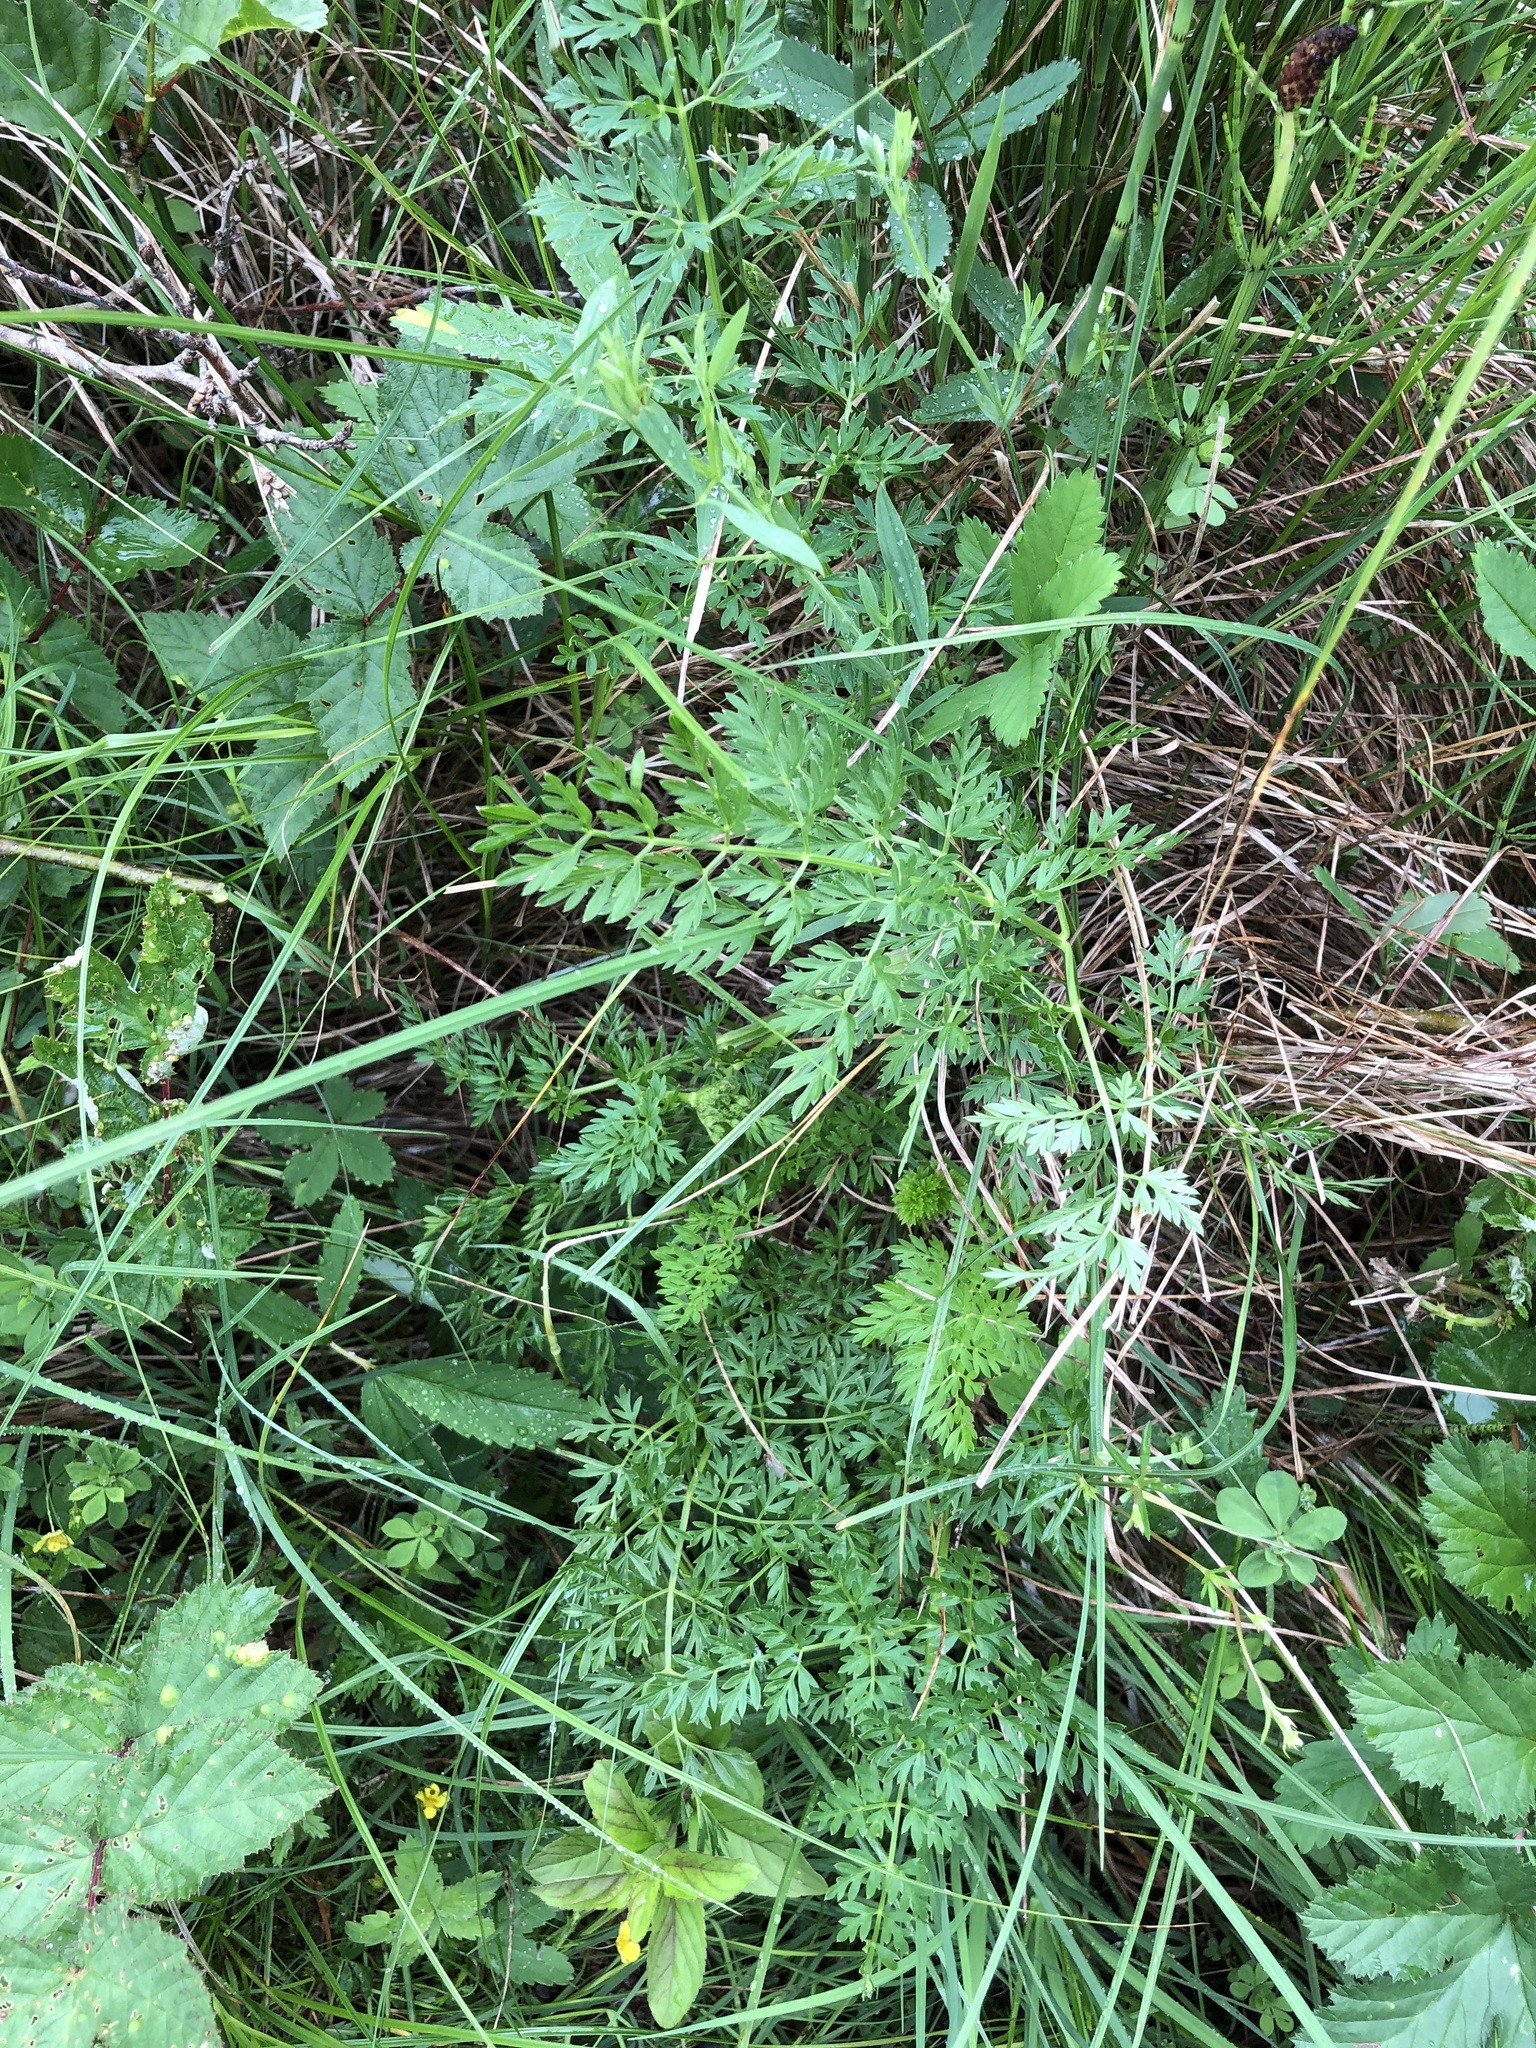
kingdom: Plantae
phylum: Tracheophyta
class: Magnoliopsida
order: Apiales
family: Apiaceae
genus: Selinum
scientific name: Selinum carvifolia
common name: Cambridge milk-parsley
